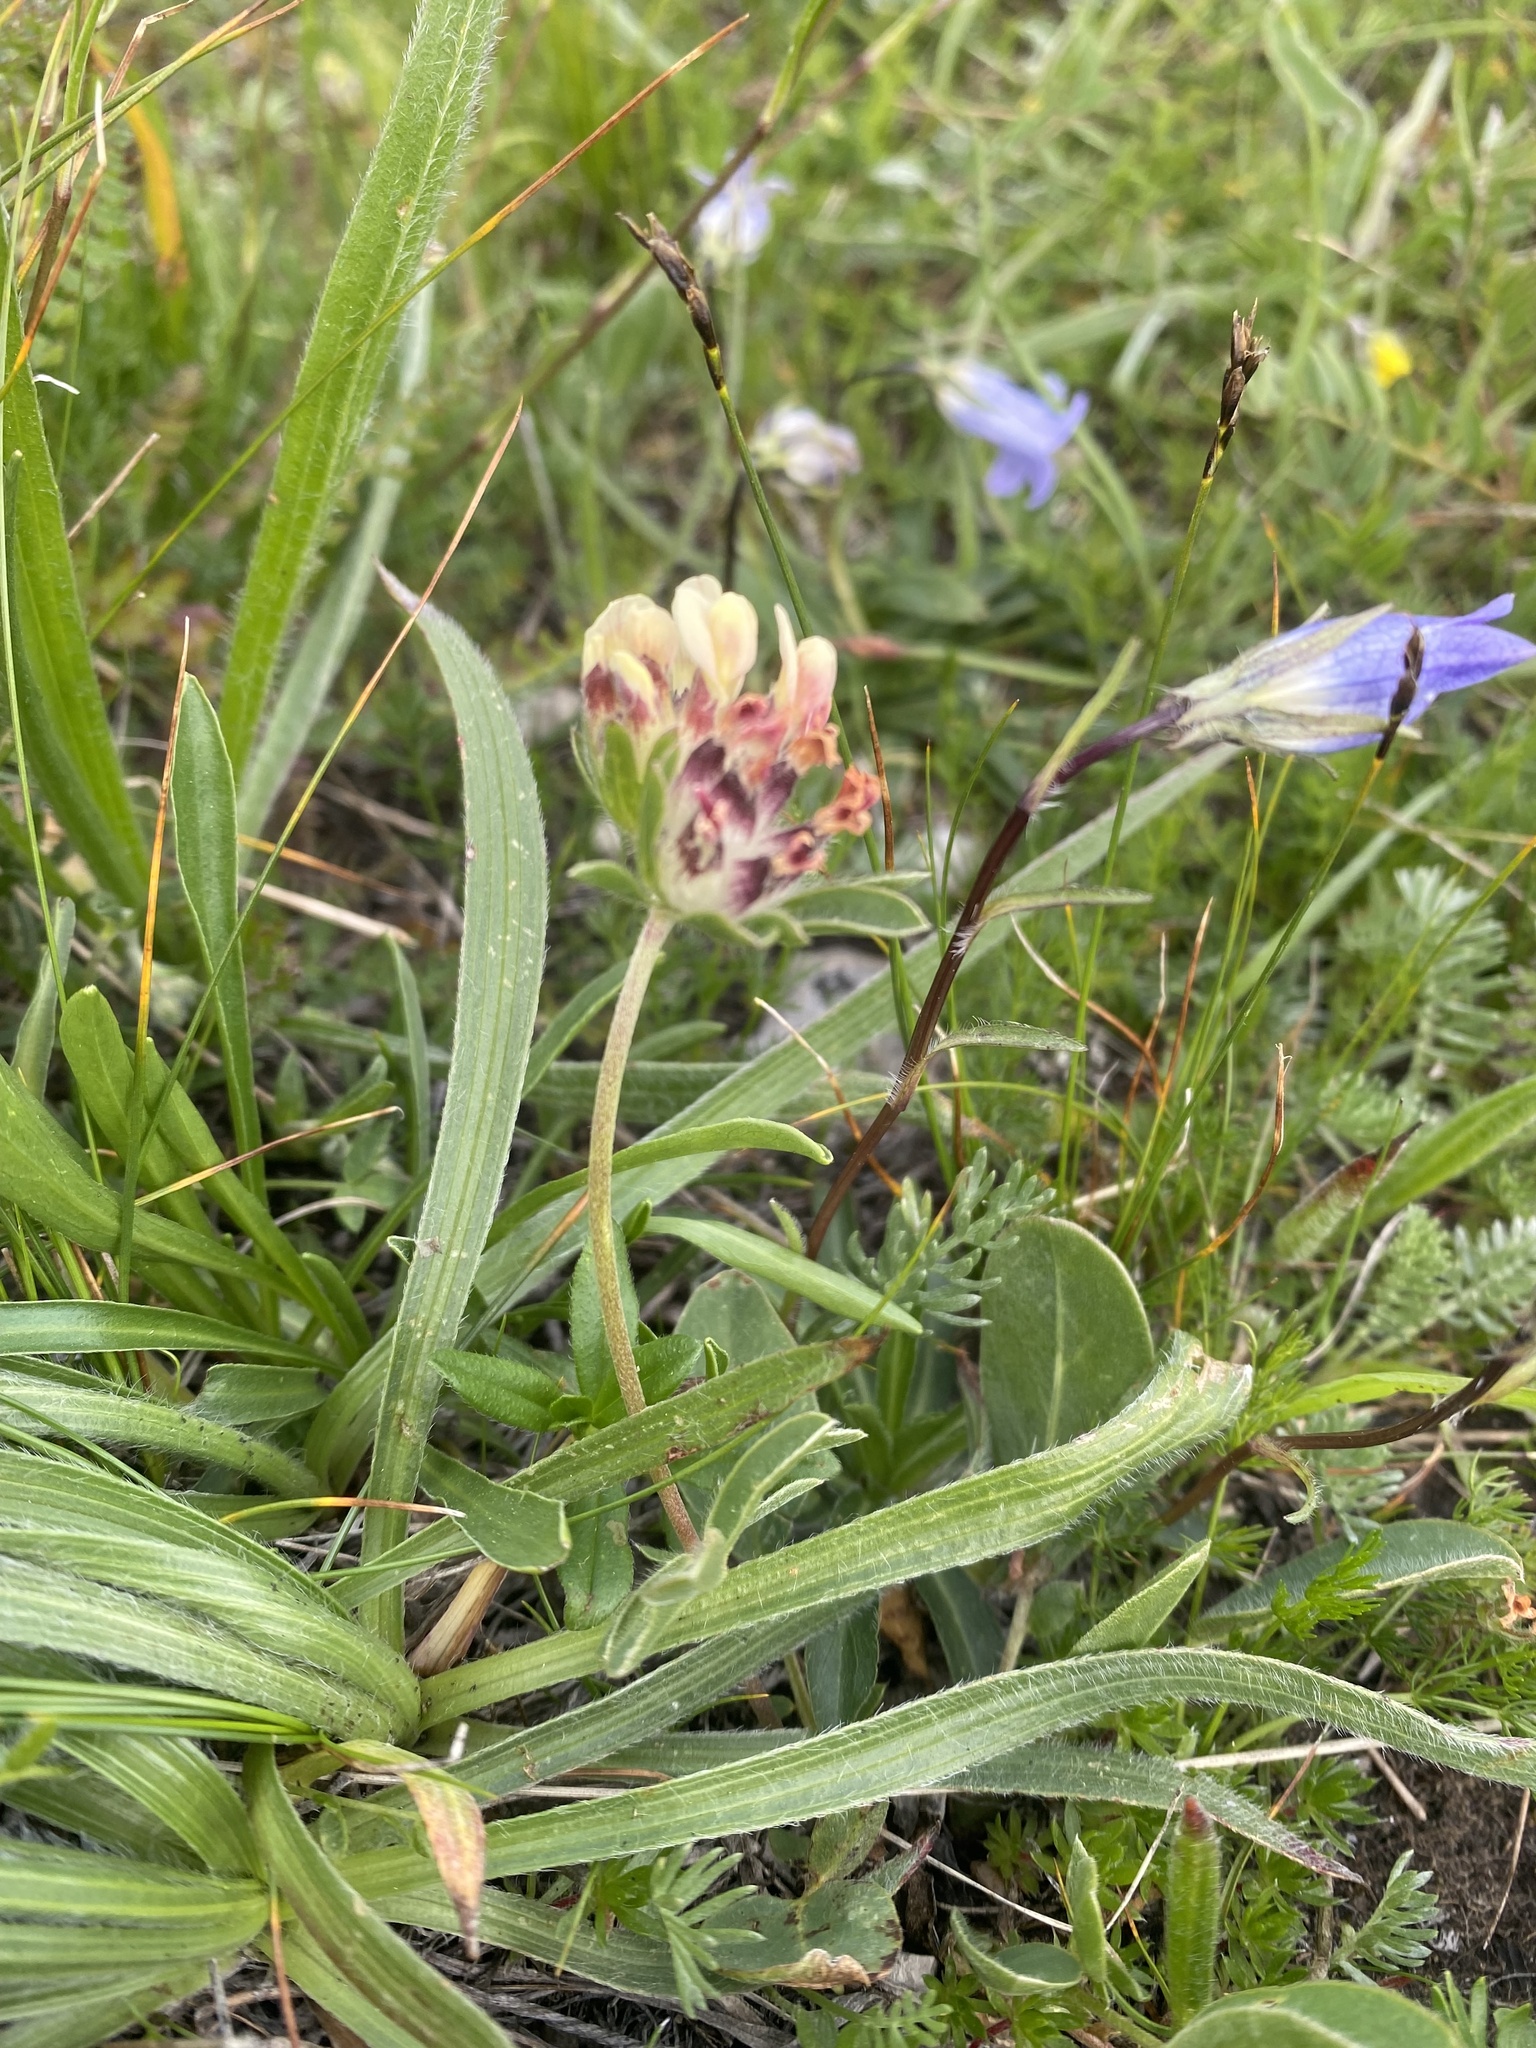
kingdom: Plantae
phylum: Tracheophyta
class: Magnoliopsida
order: Fabales
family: Fabaceae
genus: Anthyllis
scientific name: Anthyllis vulneraria
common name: Kidney vetch
